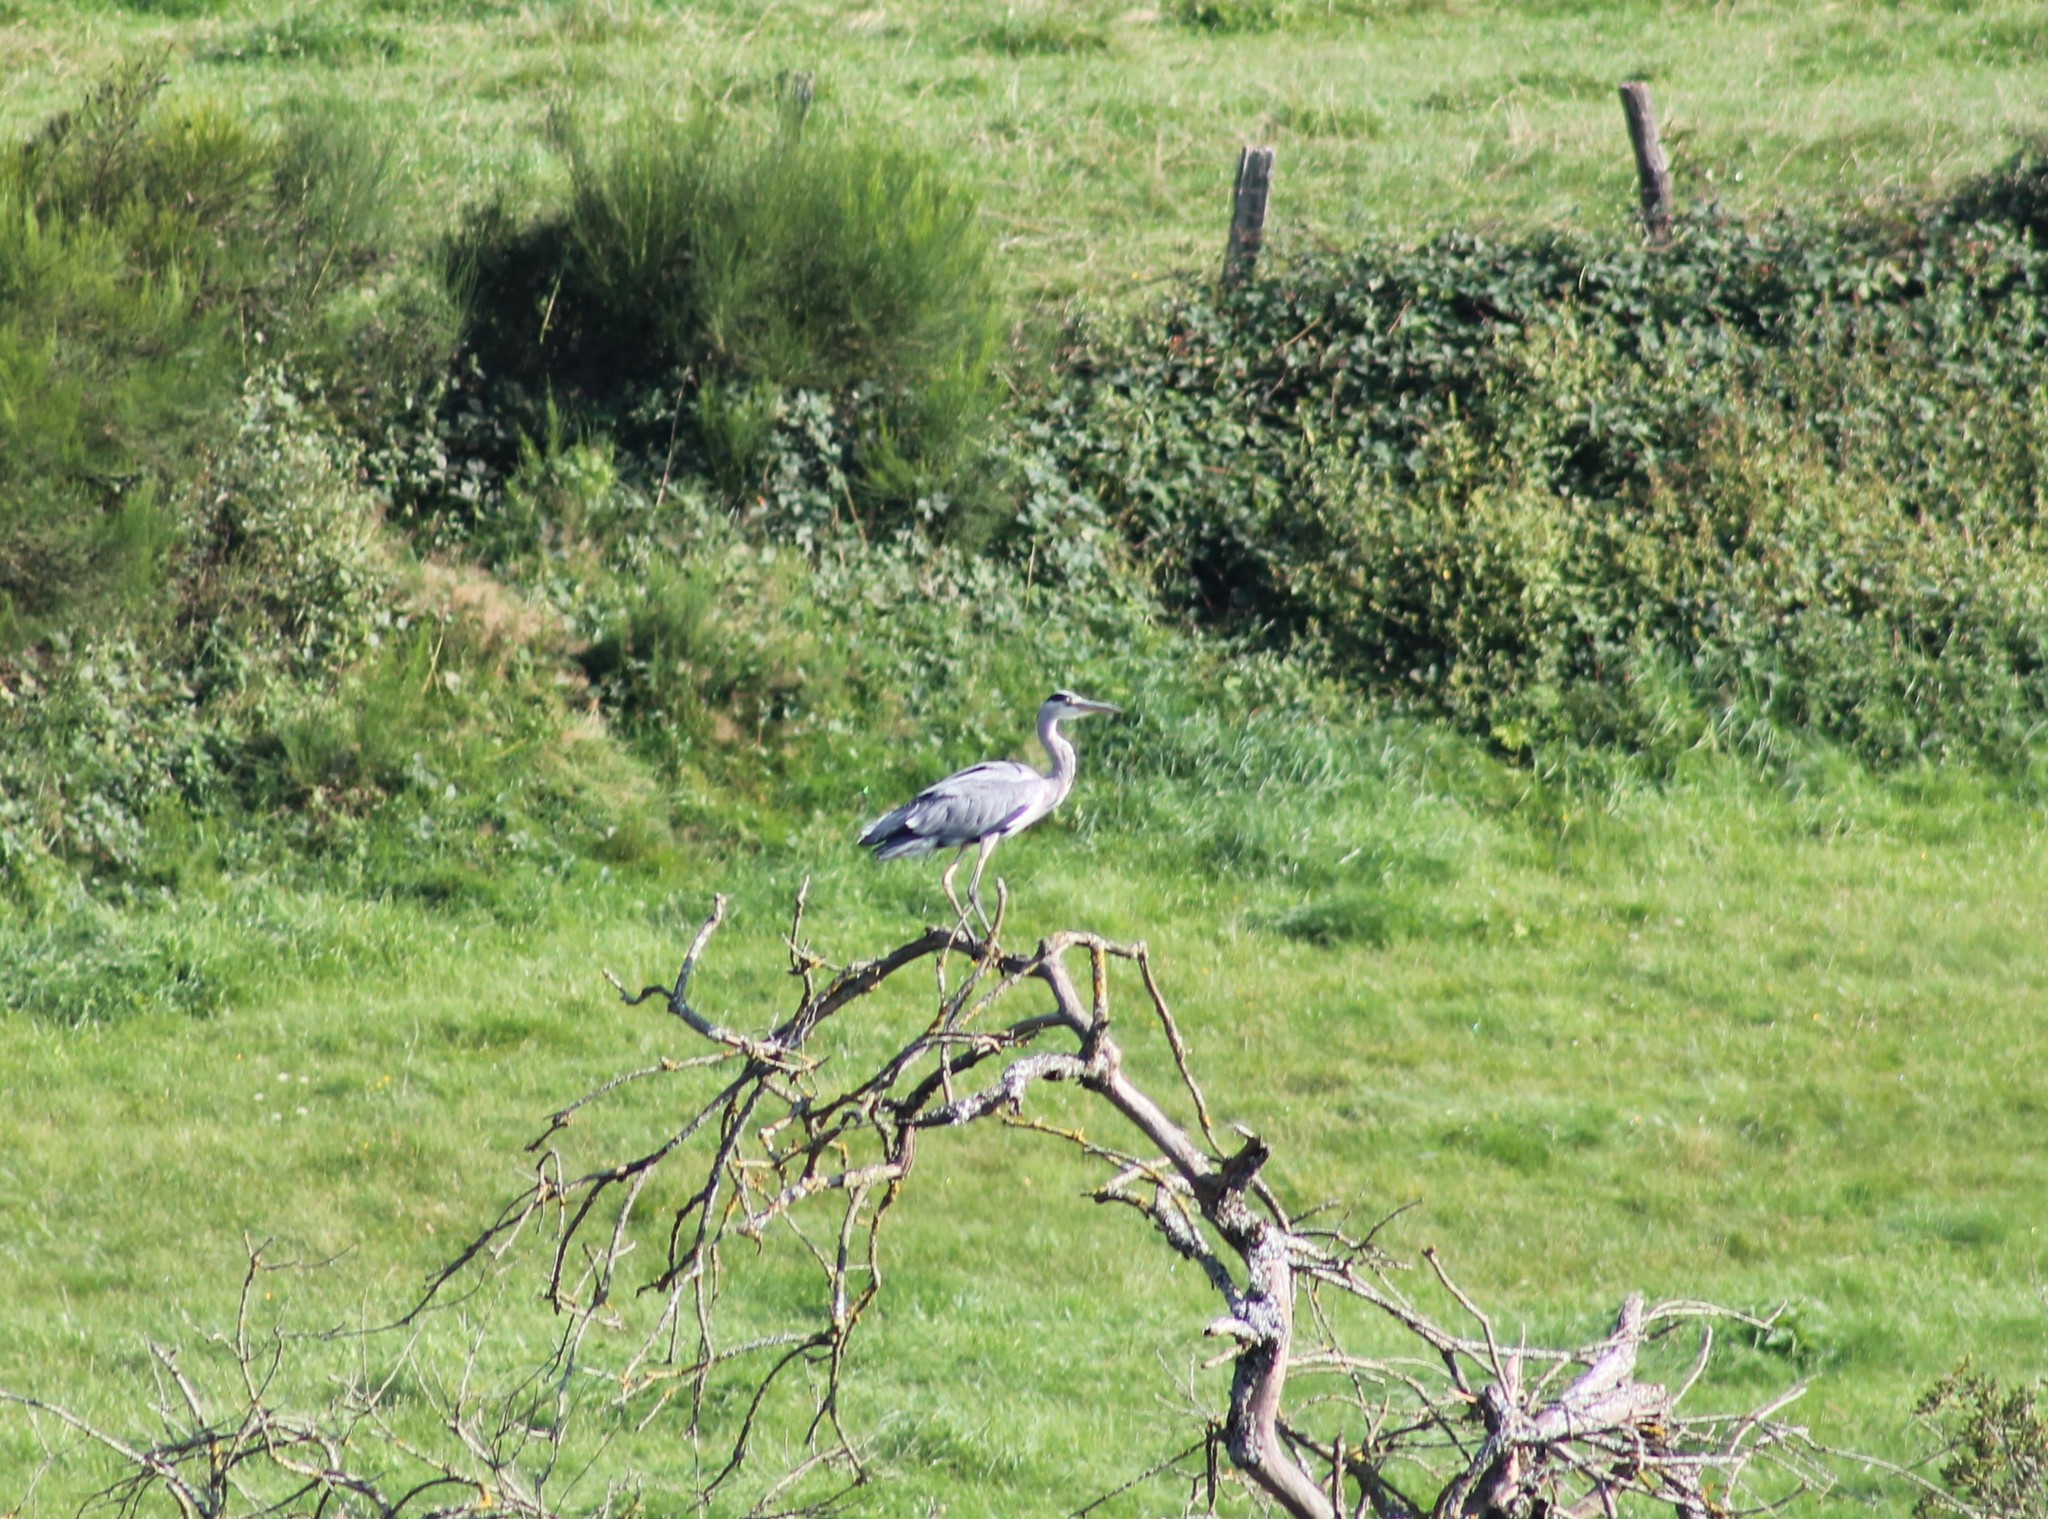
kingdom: Animalia
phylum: Chordata
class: Aves
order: Pelecaniformes
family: Ardeidae
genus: Ardea
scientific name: Ardea cinerea
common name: Grey heron
